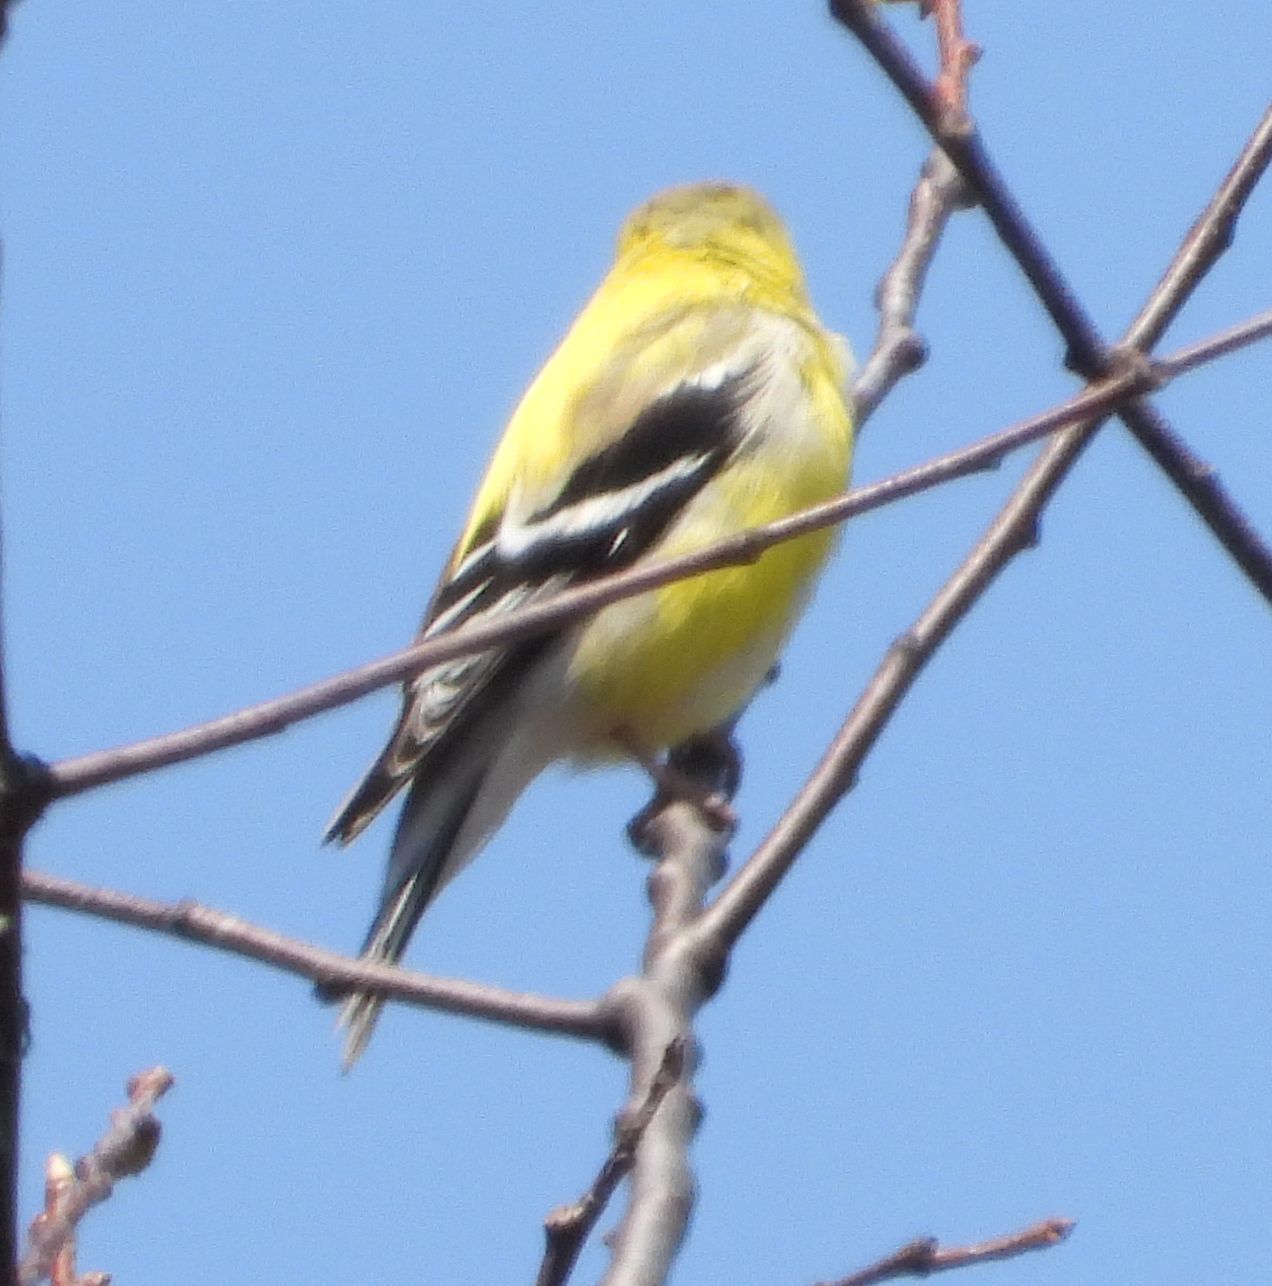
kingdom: Animalia
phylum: Chordata
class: Aves
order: Passeriformes
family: Fringillidae
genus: Spinus
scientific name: Spinus tristis
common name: American goldfinch
